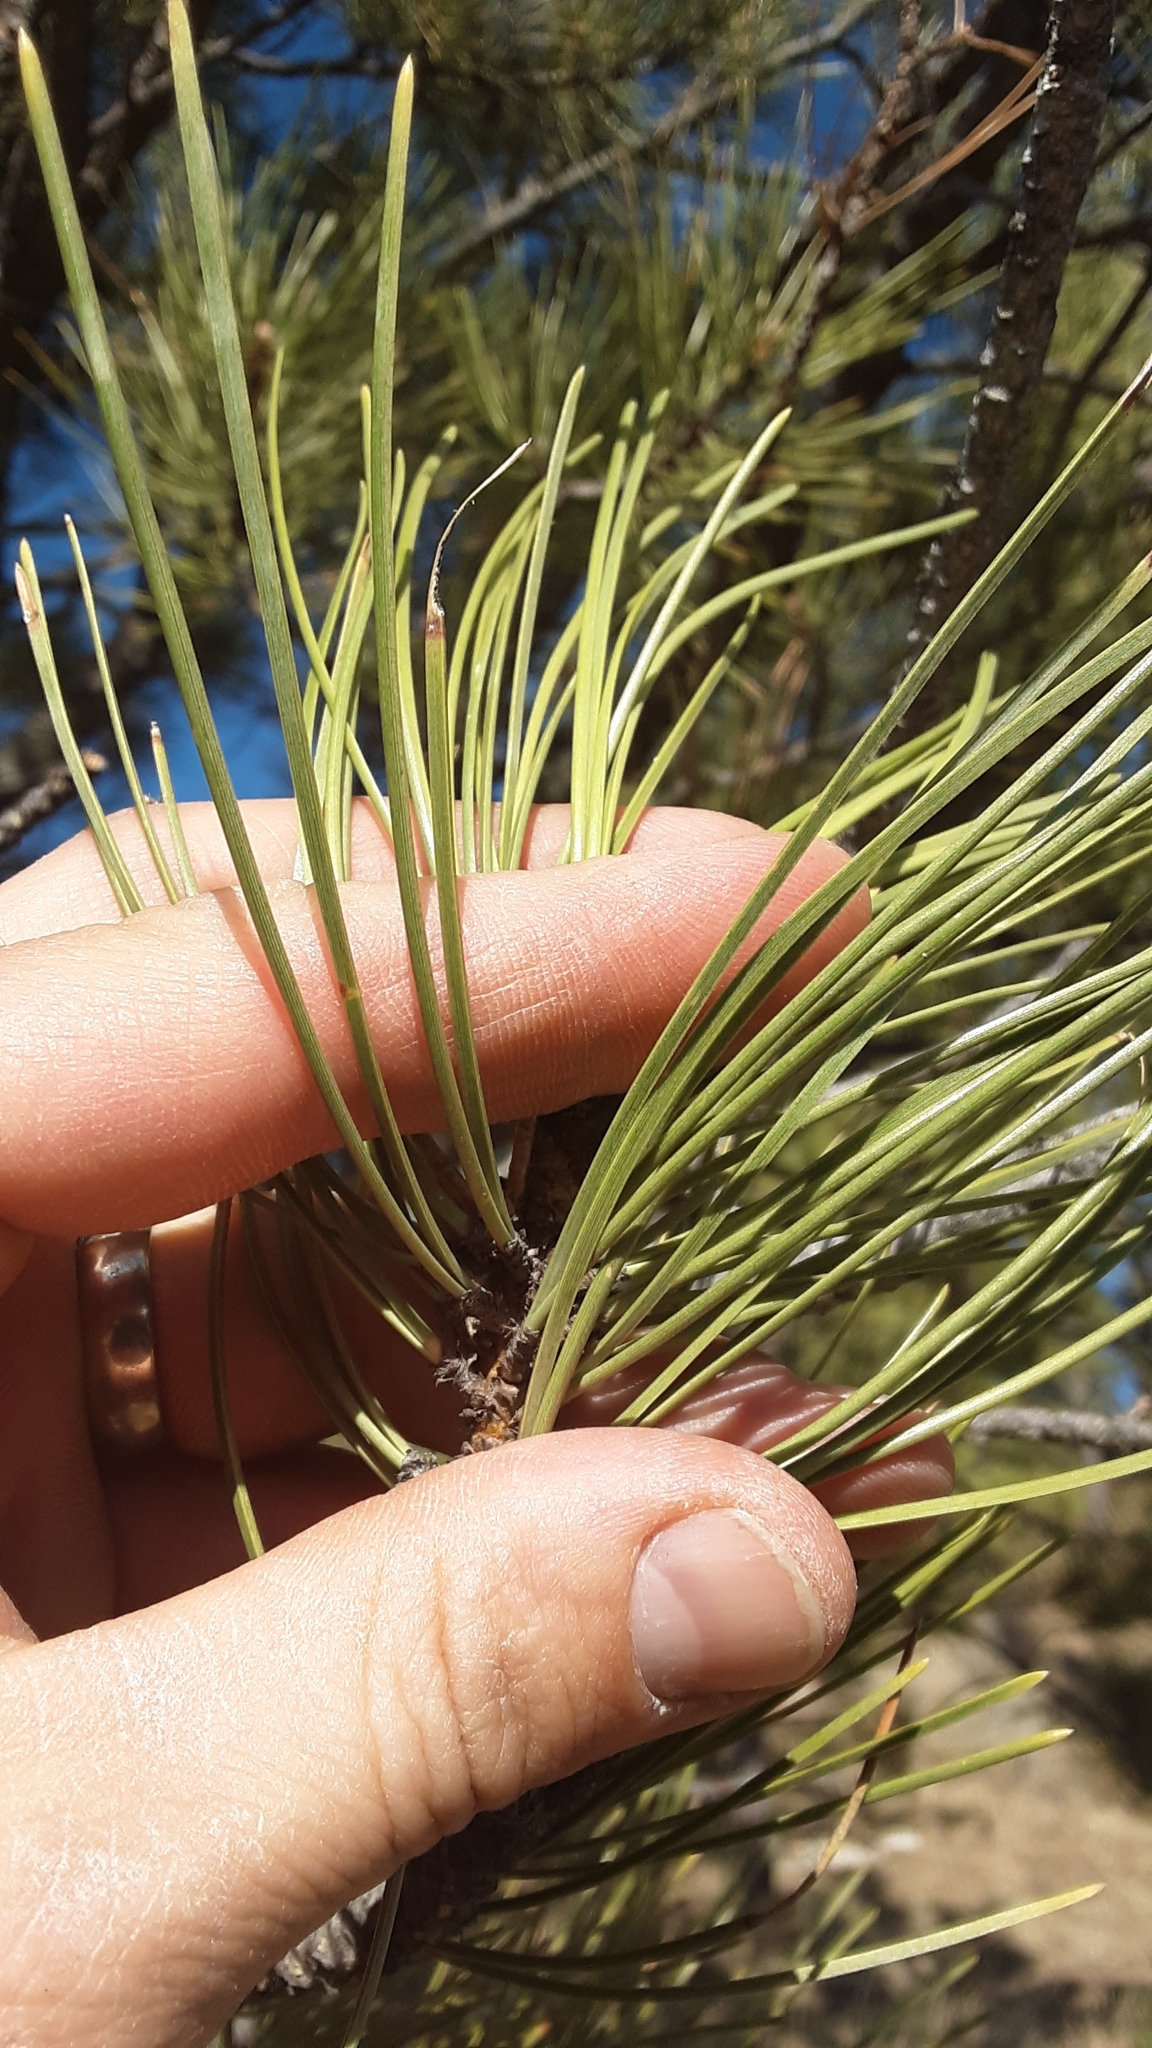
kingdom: Plantae
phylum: Tracheophyta
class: Pinopsida
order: Pinales
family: Pinaceae
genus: Pinus
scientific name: Pinus ponderosa
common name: Western yellow-pine
